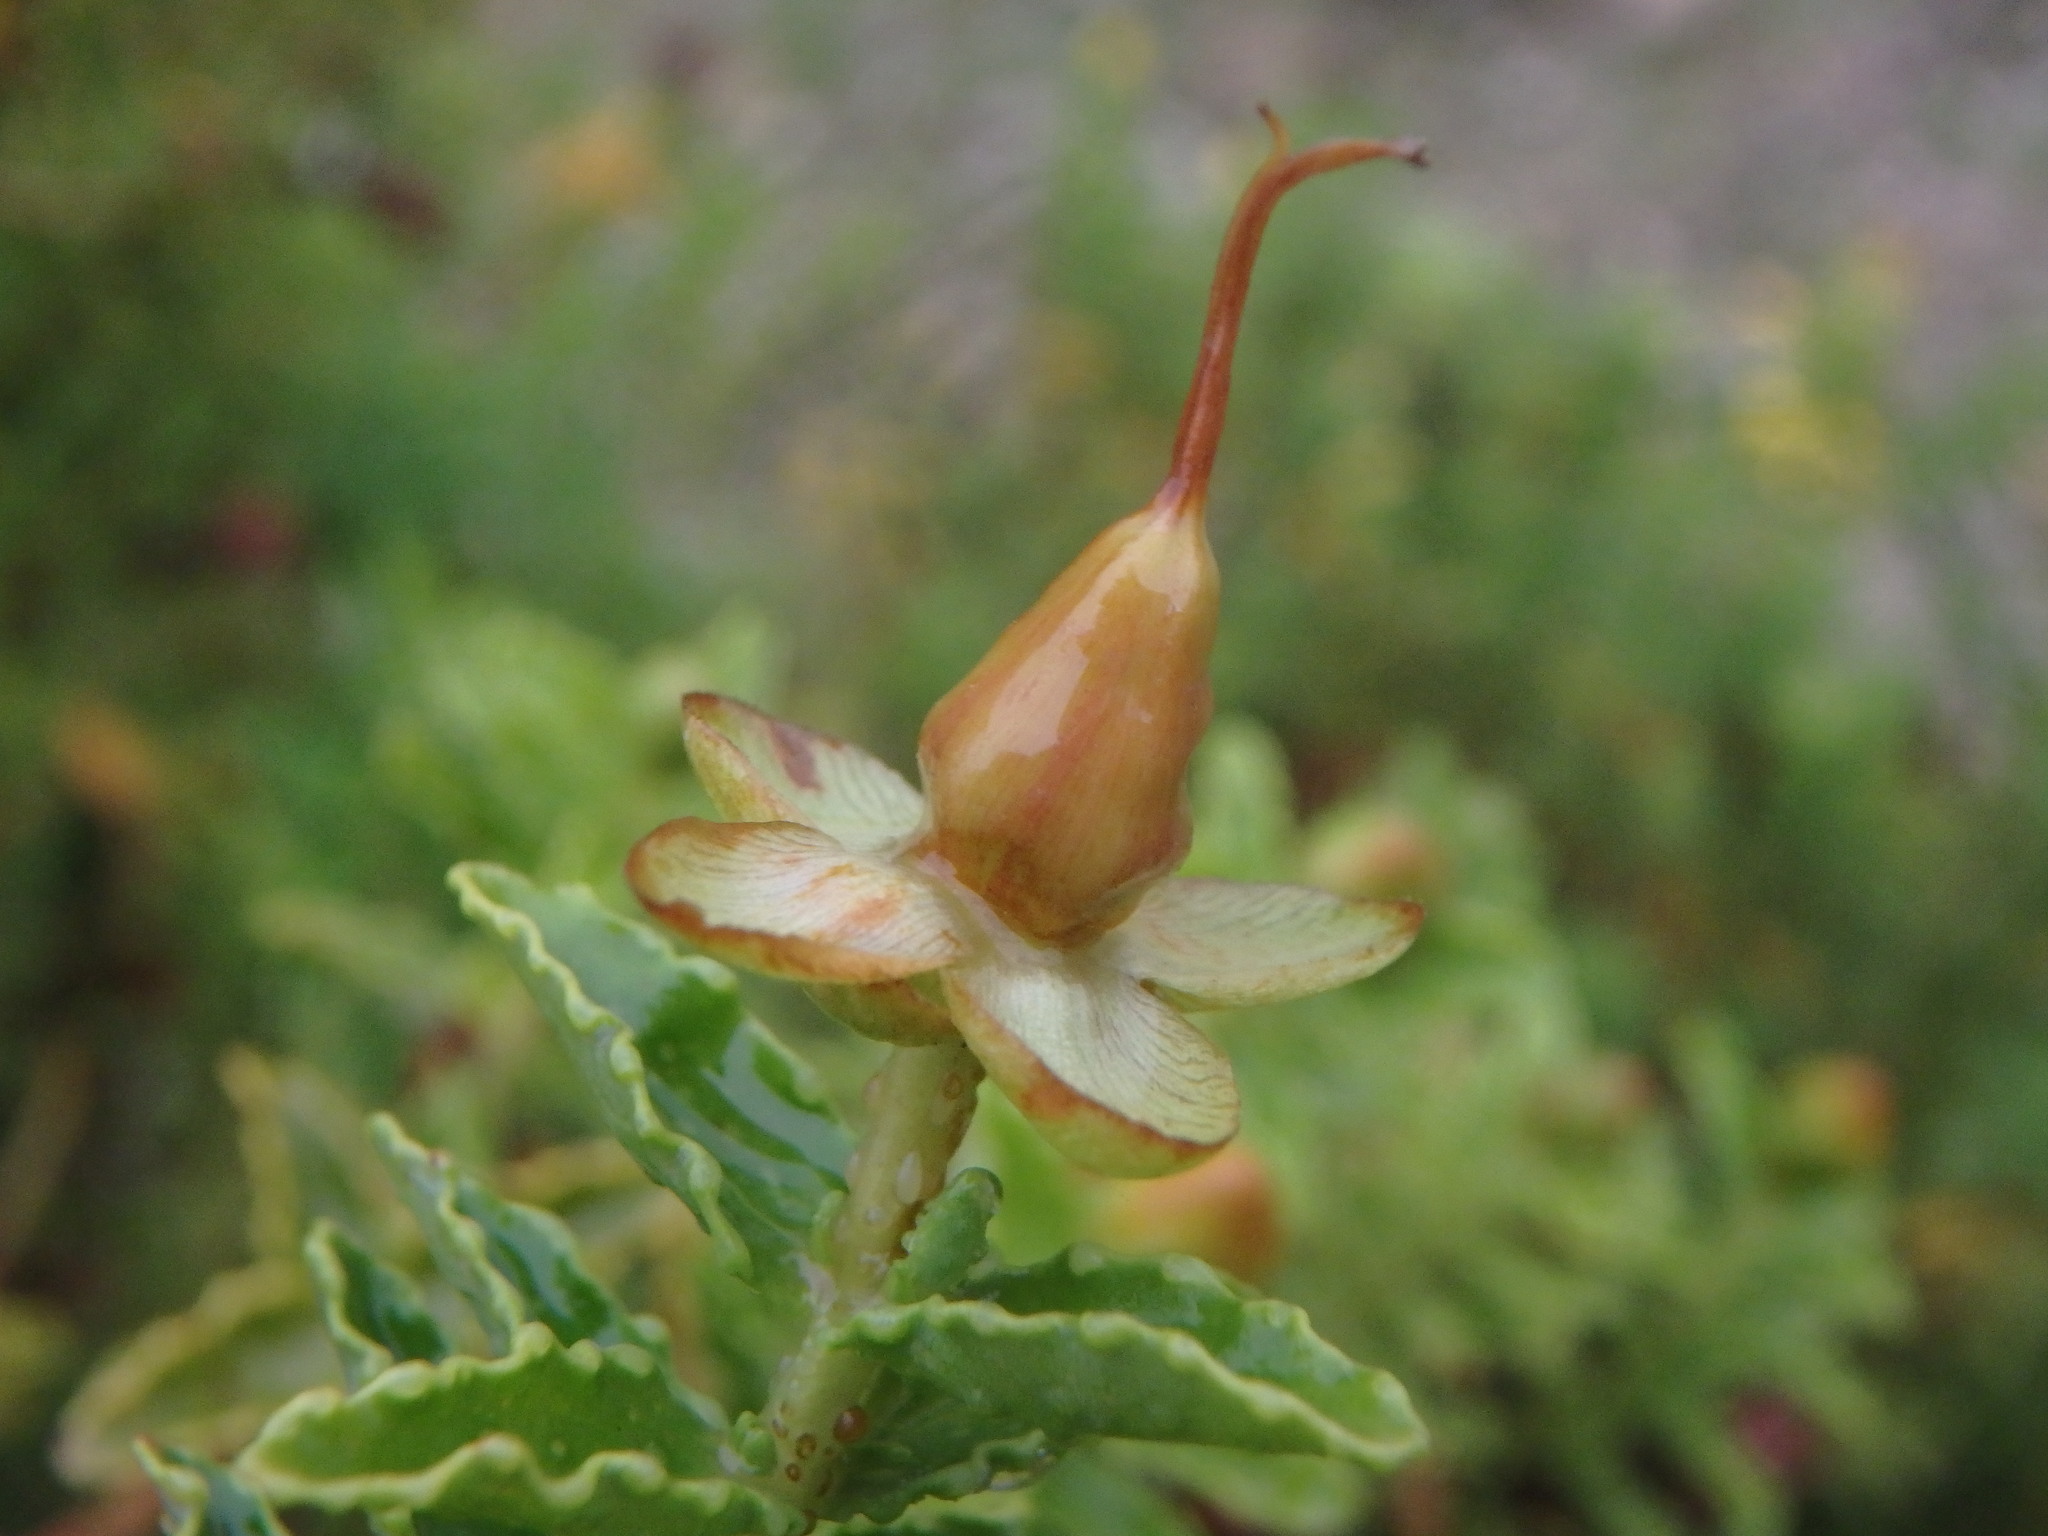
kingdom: Plantae
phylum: Tracheophyta
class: Magnoliopsida
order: Malpighiales
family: Hypericaceae
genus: Hypericum
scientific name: Hypericum balearicum
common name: Majorca st john's wort
